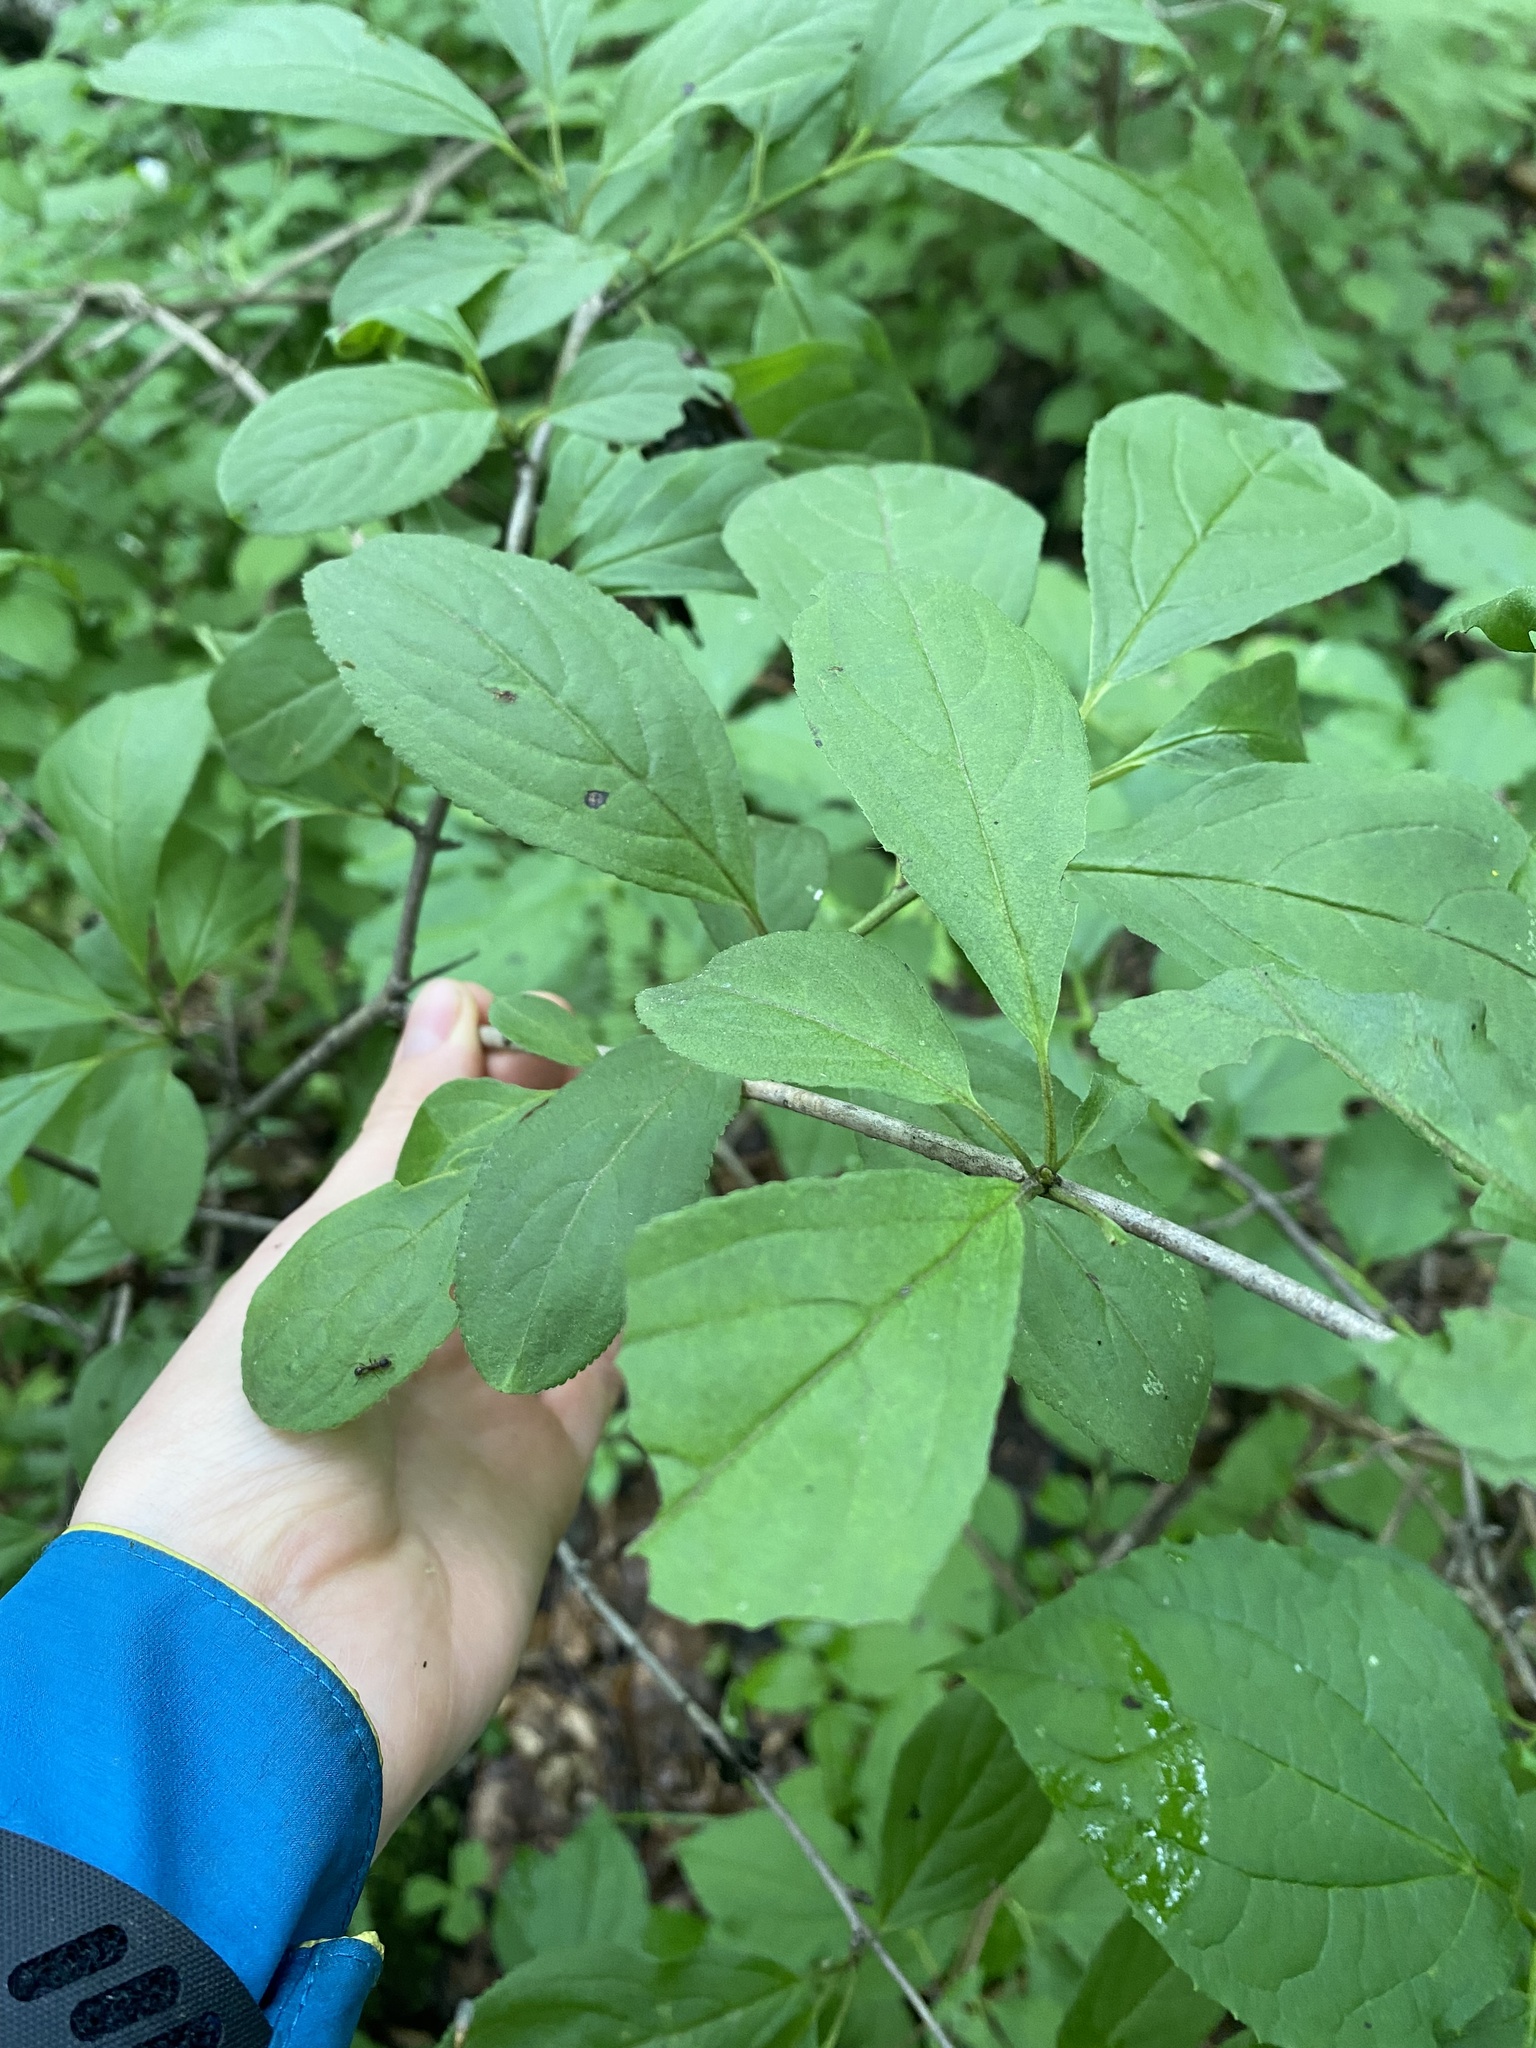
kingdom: Plantae
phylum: Tracheophyta
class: Magnoliopsida
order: Rosales
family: Rhamnaceae
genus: Rhamnus
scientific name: Rhamnus virgata
